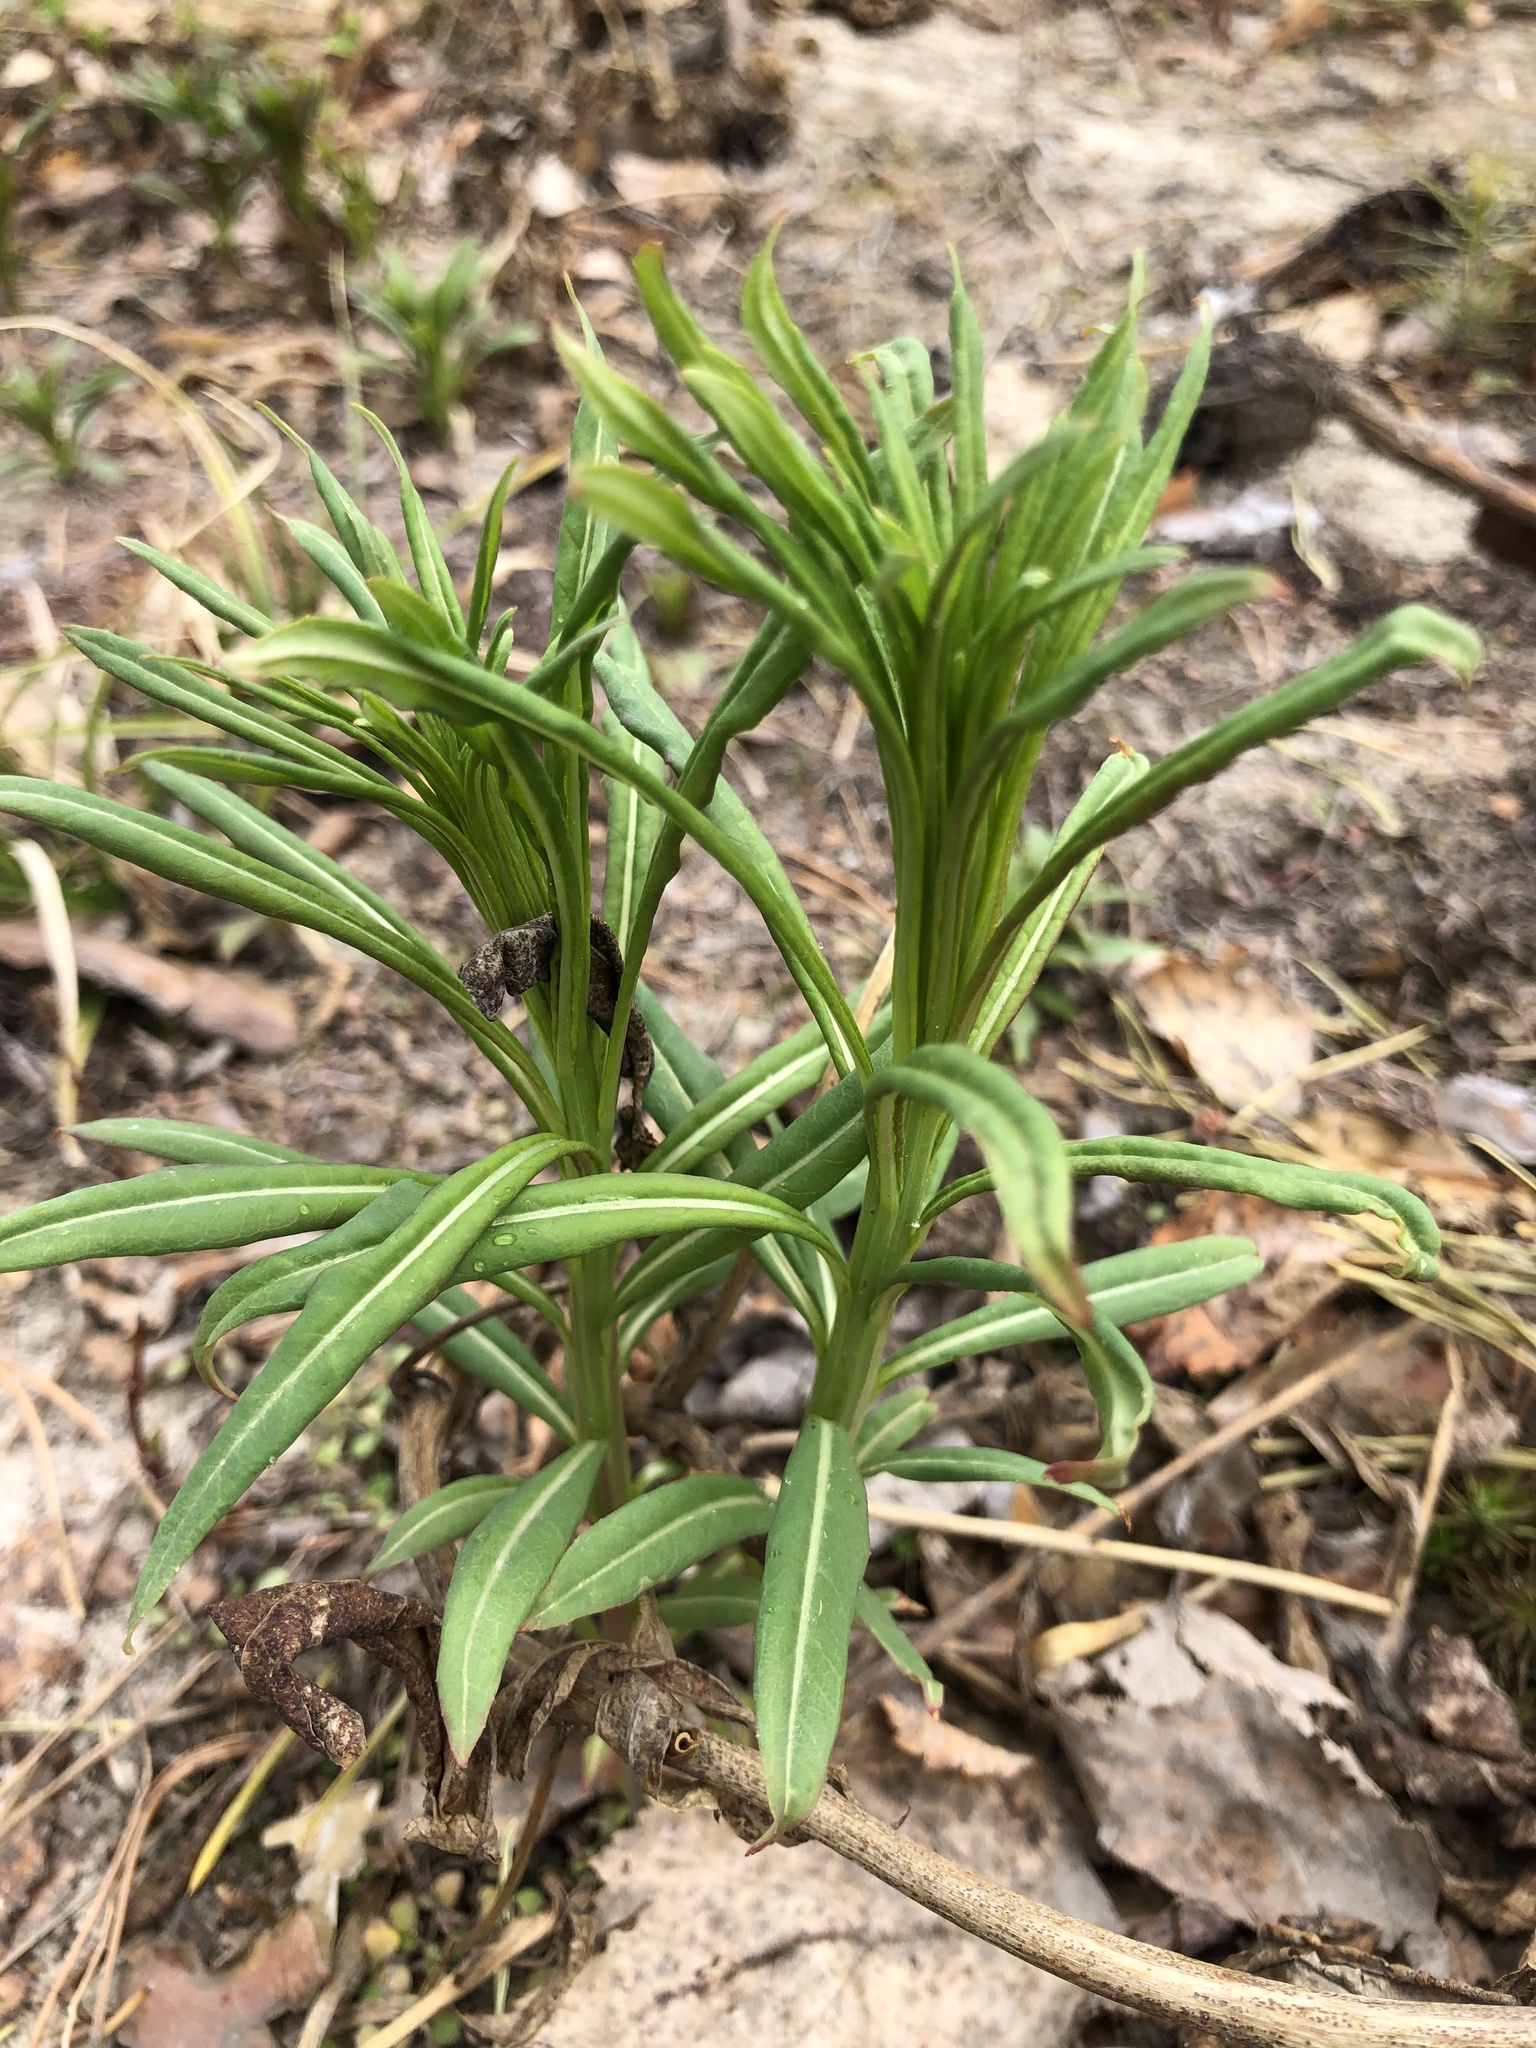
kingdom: Plantae
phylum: Tracheophyta
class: Magnoliopsida
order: Myrtales
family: Onagraceae
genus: Chamaenerion
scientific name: Chamaenerion angustifolium
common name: Fireweed
